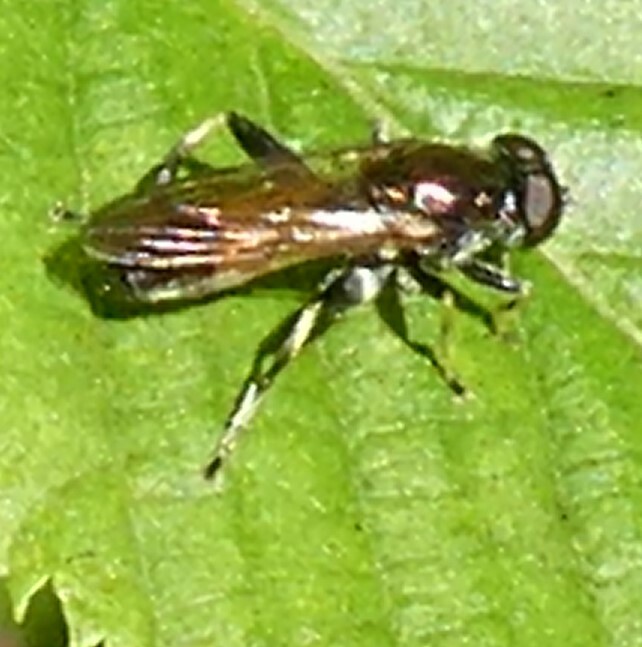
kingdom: Animalia
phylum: Arthropoda
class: Insecta
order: Diptera
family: Syrphidae
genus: Xylota
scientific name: Xylota segnis
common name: Brown-toed forest fly
